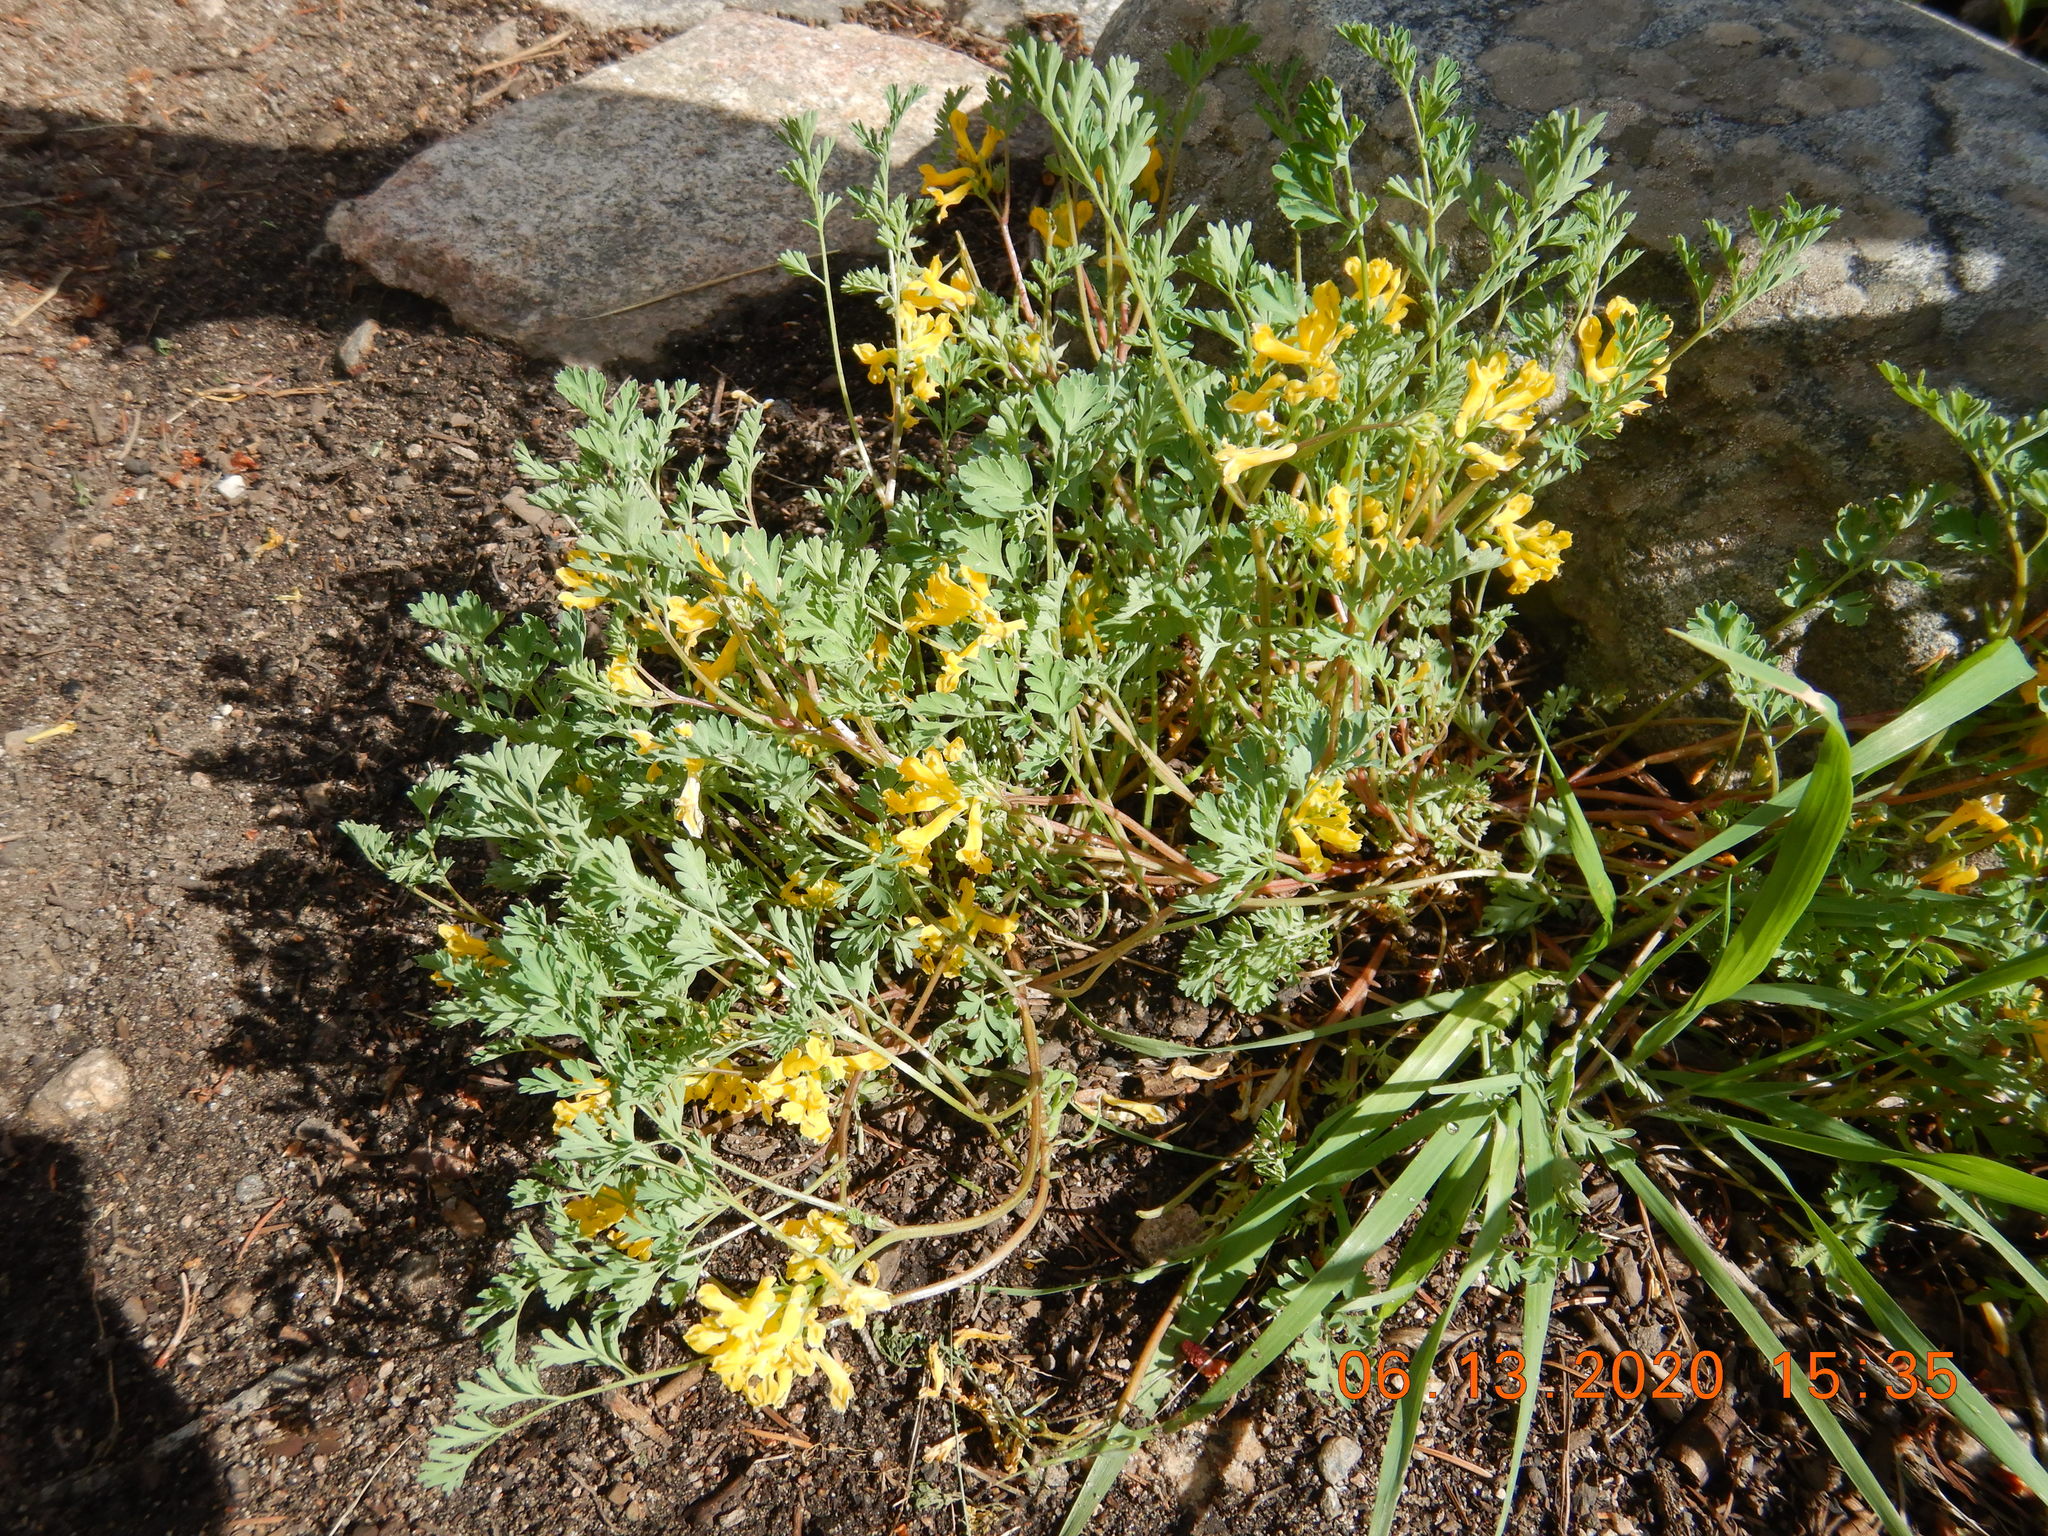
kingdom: Plantae
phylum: Tracheophyta
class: Magnoliopsida
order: Ranunculales
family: Papaveraceae
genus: Corydalis
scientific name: Corydalis aurea
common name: Golden corydalis
